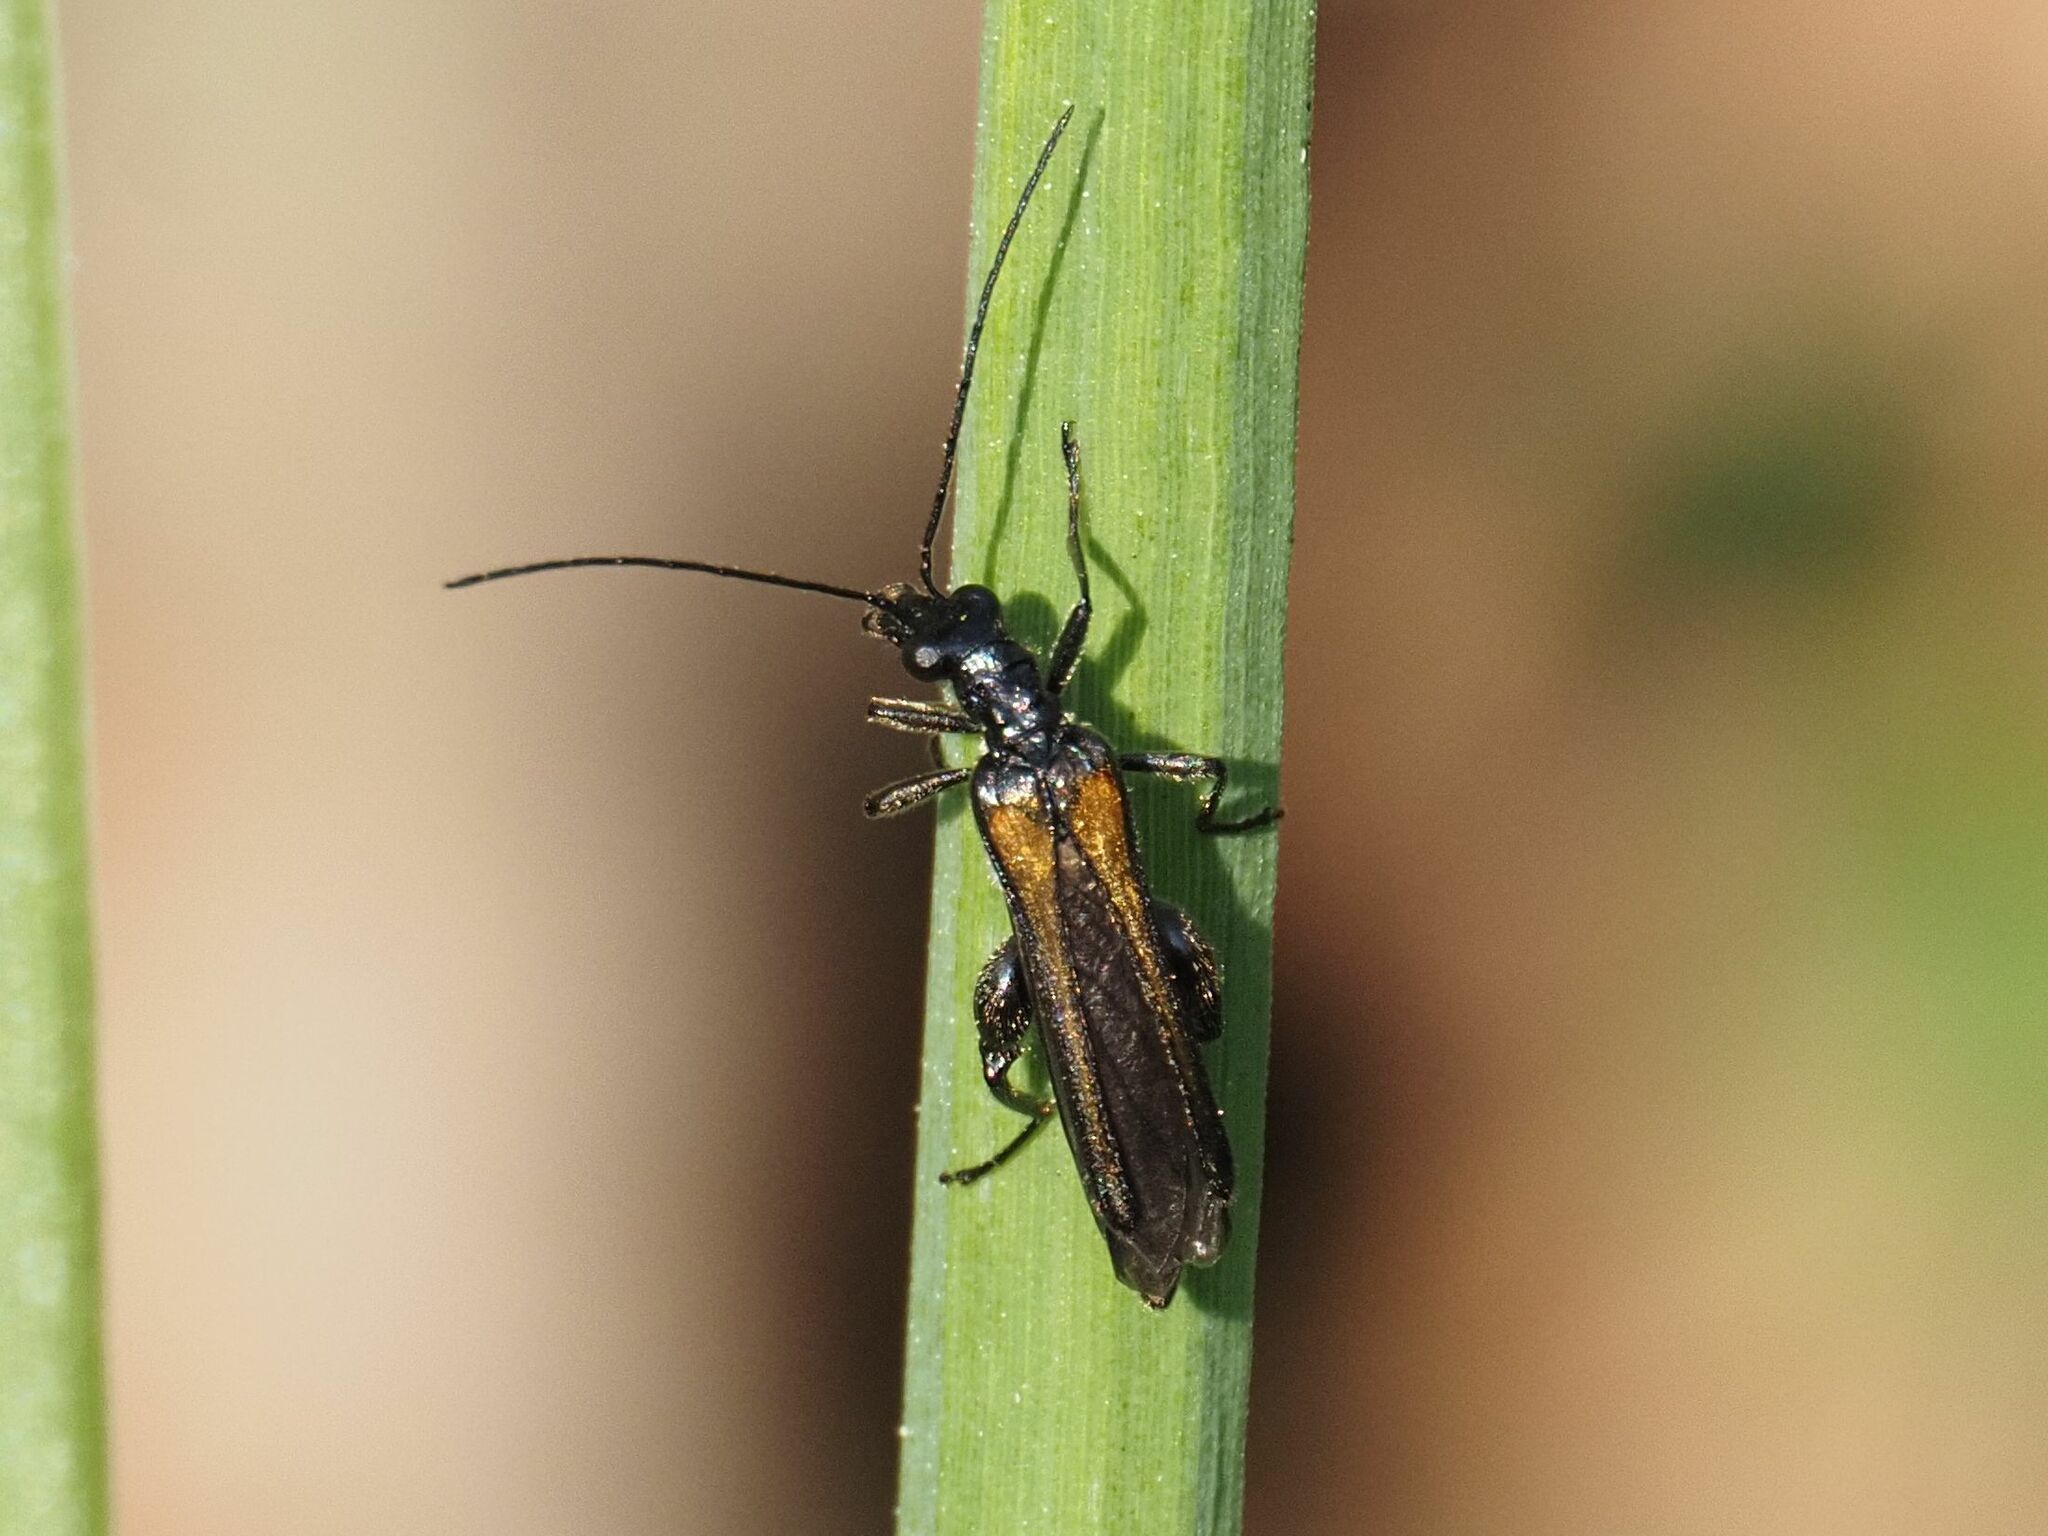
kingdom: Animalia
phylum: Arthropoda
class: Insecta
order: Coleoptera
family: Oedemeridae
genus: Oedemera
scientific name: Oedemera pthysica
